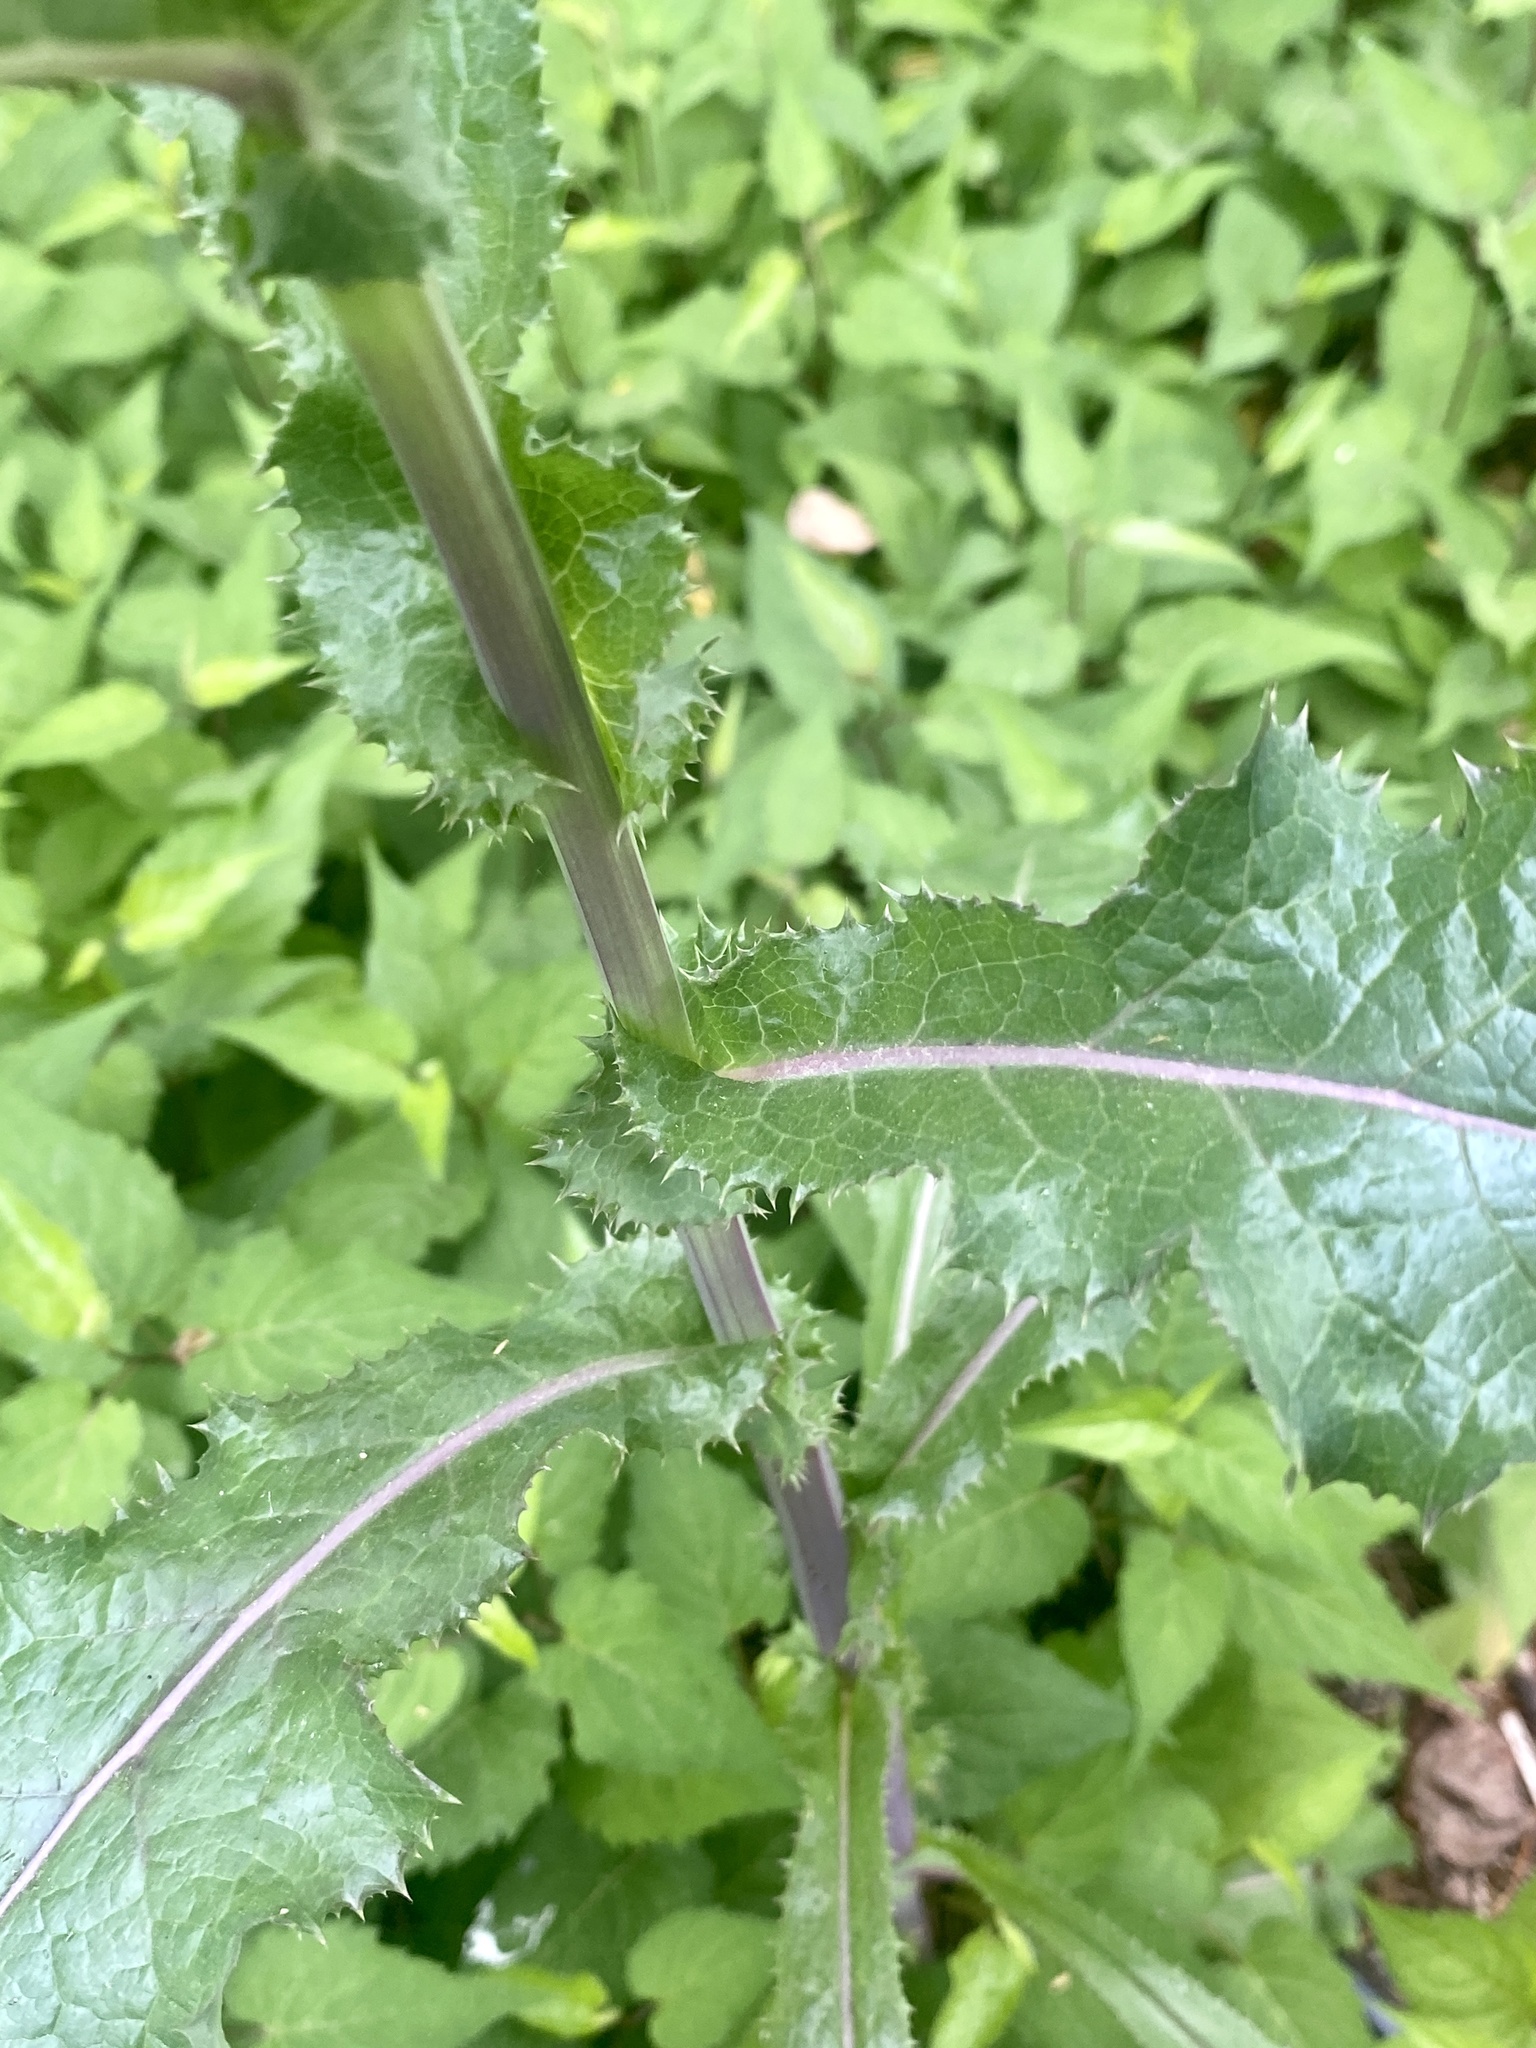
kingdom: Plantae
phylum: Tracheophyta
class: Magnoliopsida
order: Asterales
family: Asteraceae
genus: Sonchus
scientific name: Sonchus asper
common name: Prickly sow-thistle
